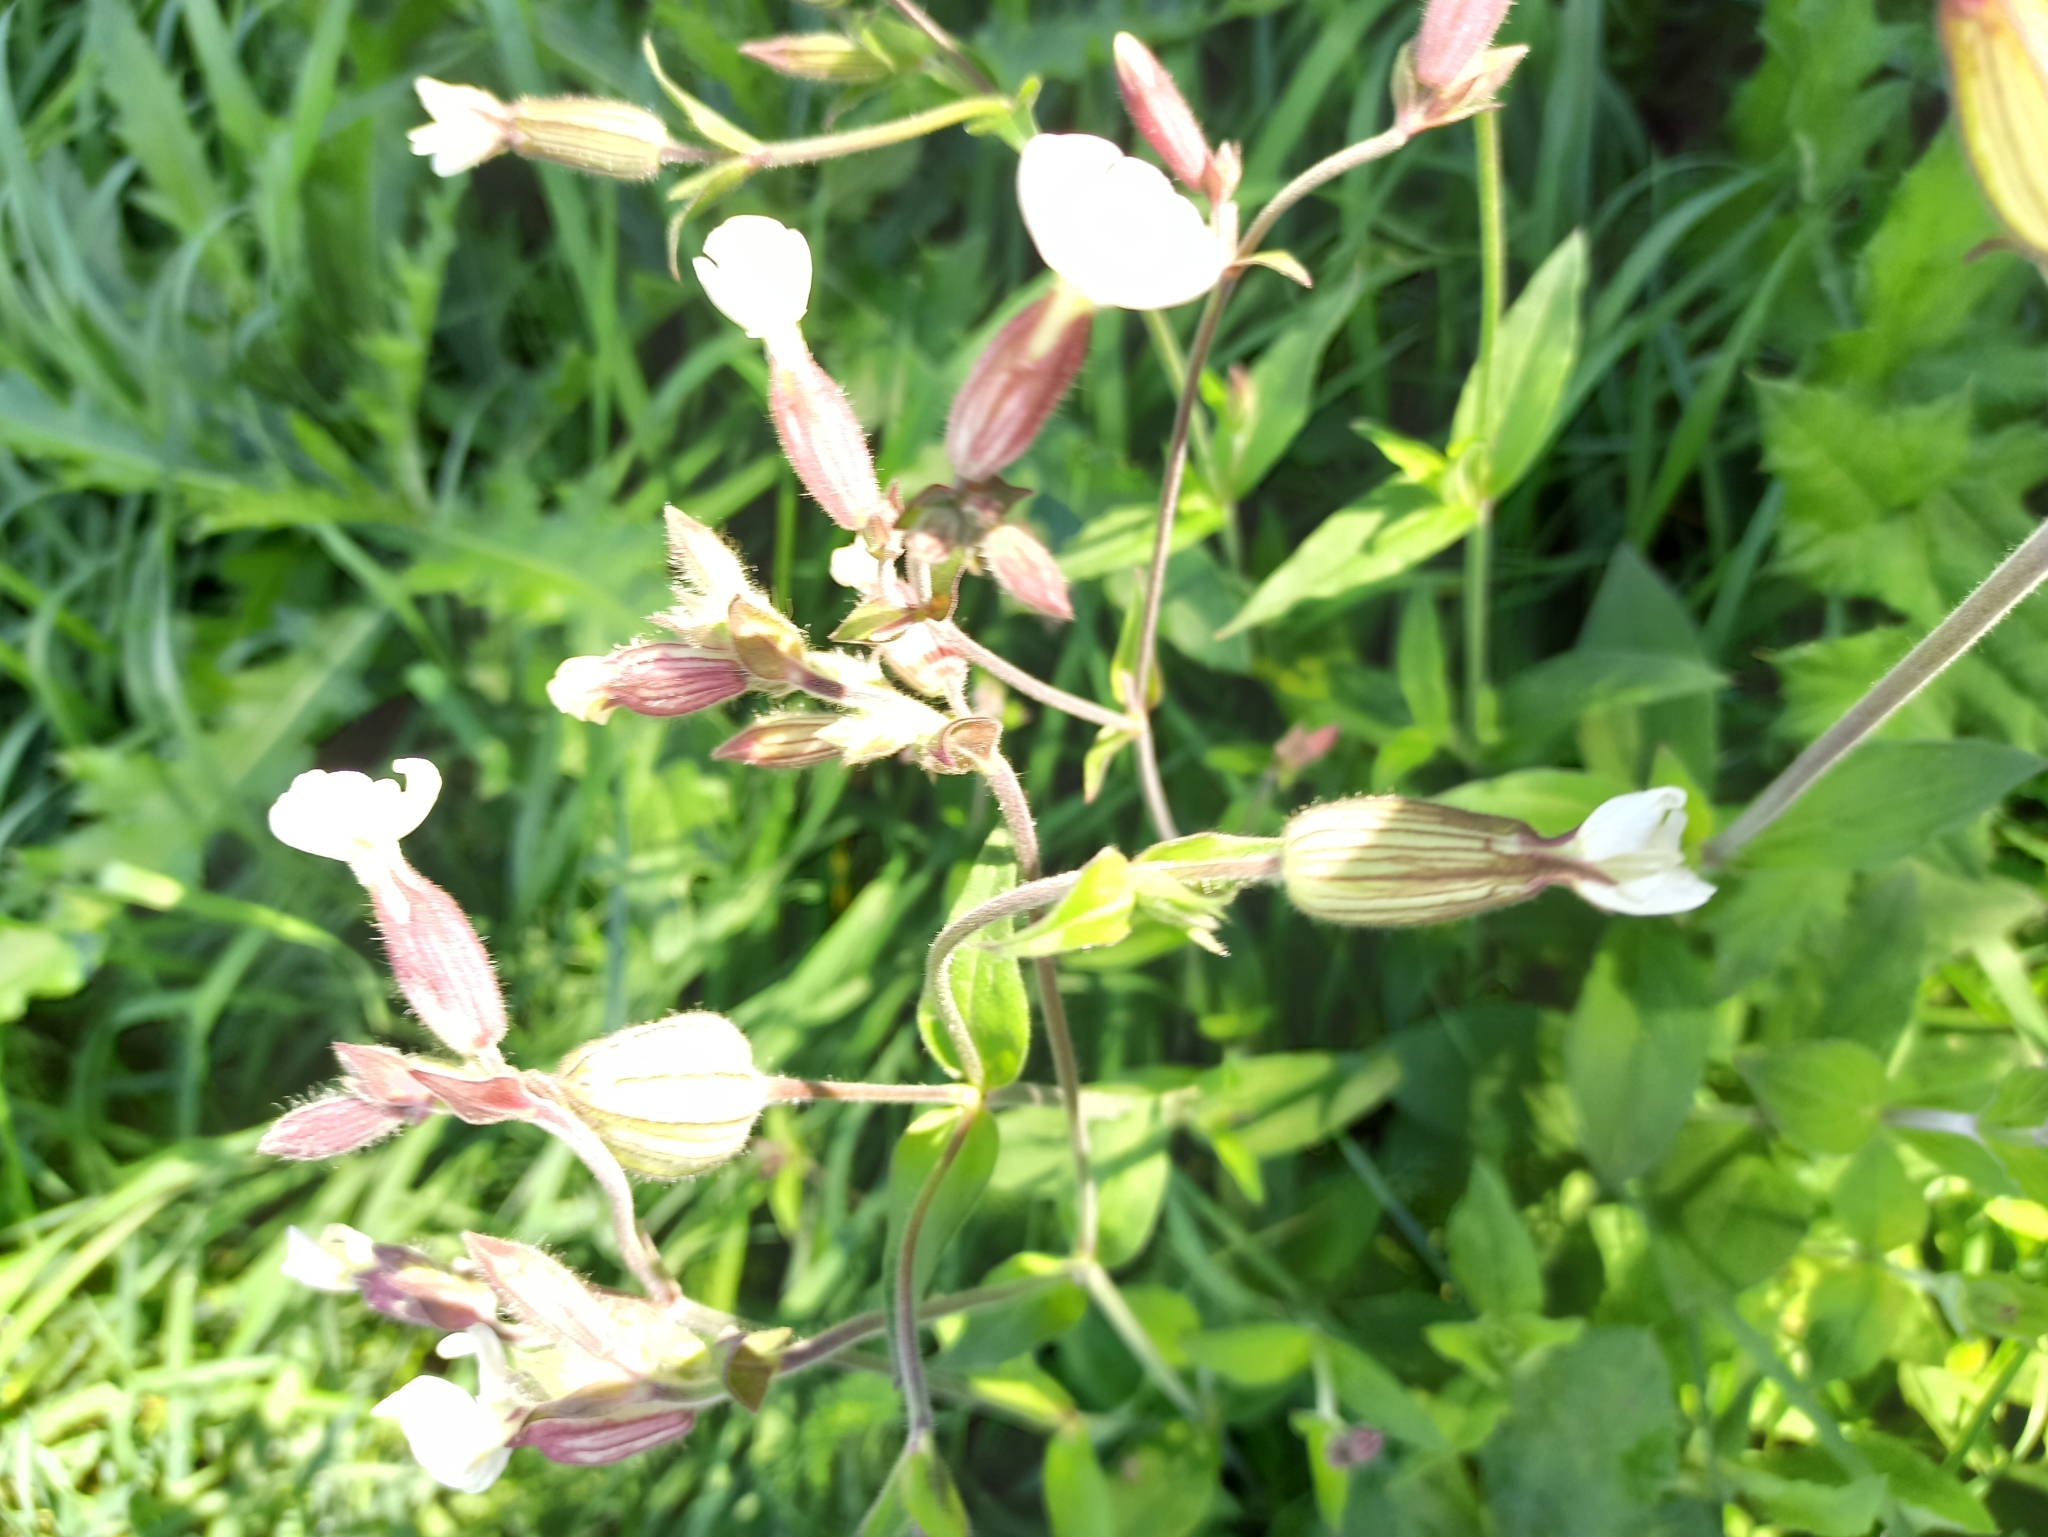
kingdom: Plantae
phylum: Tracheophyta
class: Magnoliopsida
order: Caryophyllales
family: Caryophyllaceae
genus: Silene
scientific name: Silene latifolia
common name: White campion
